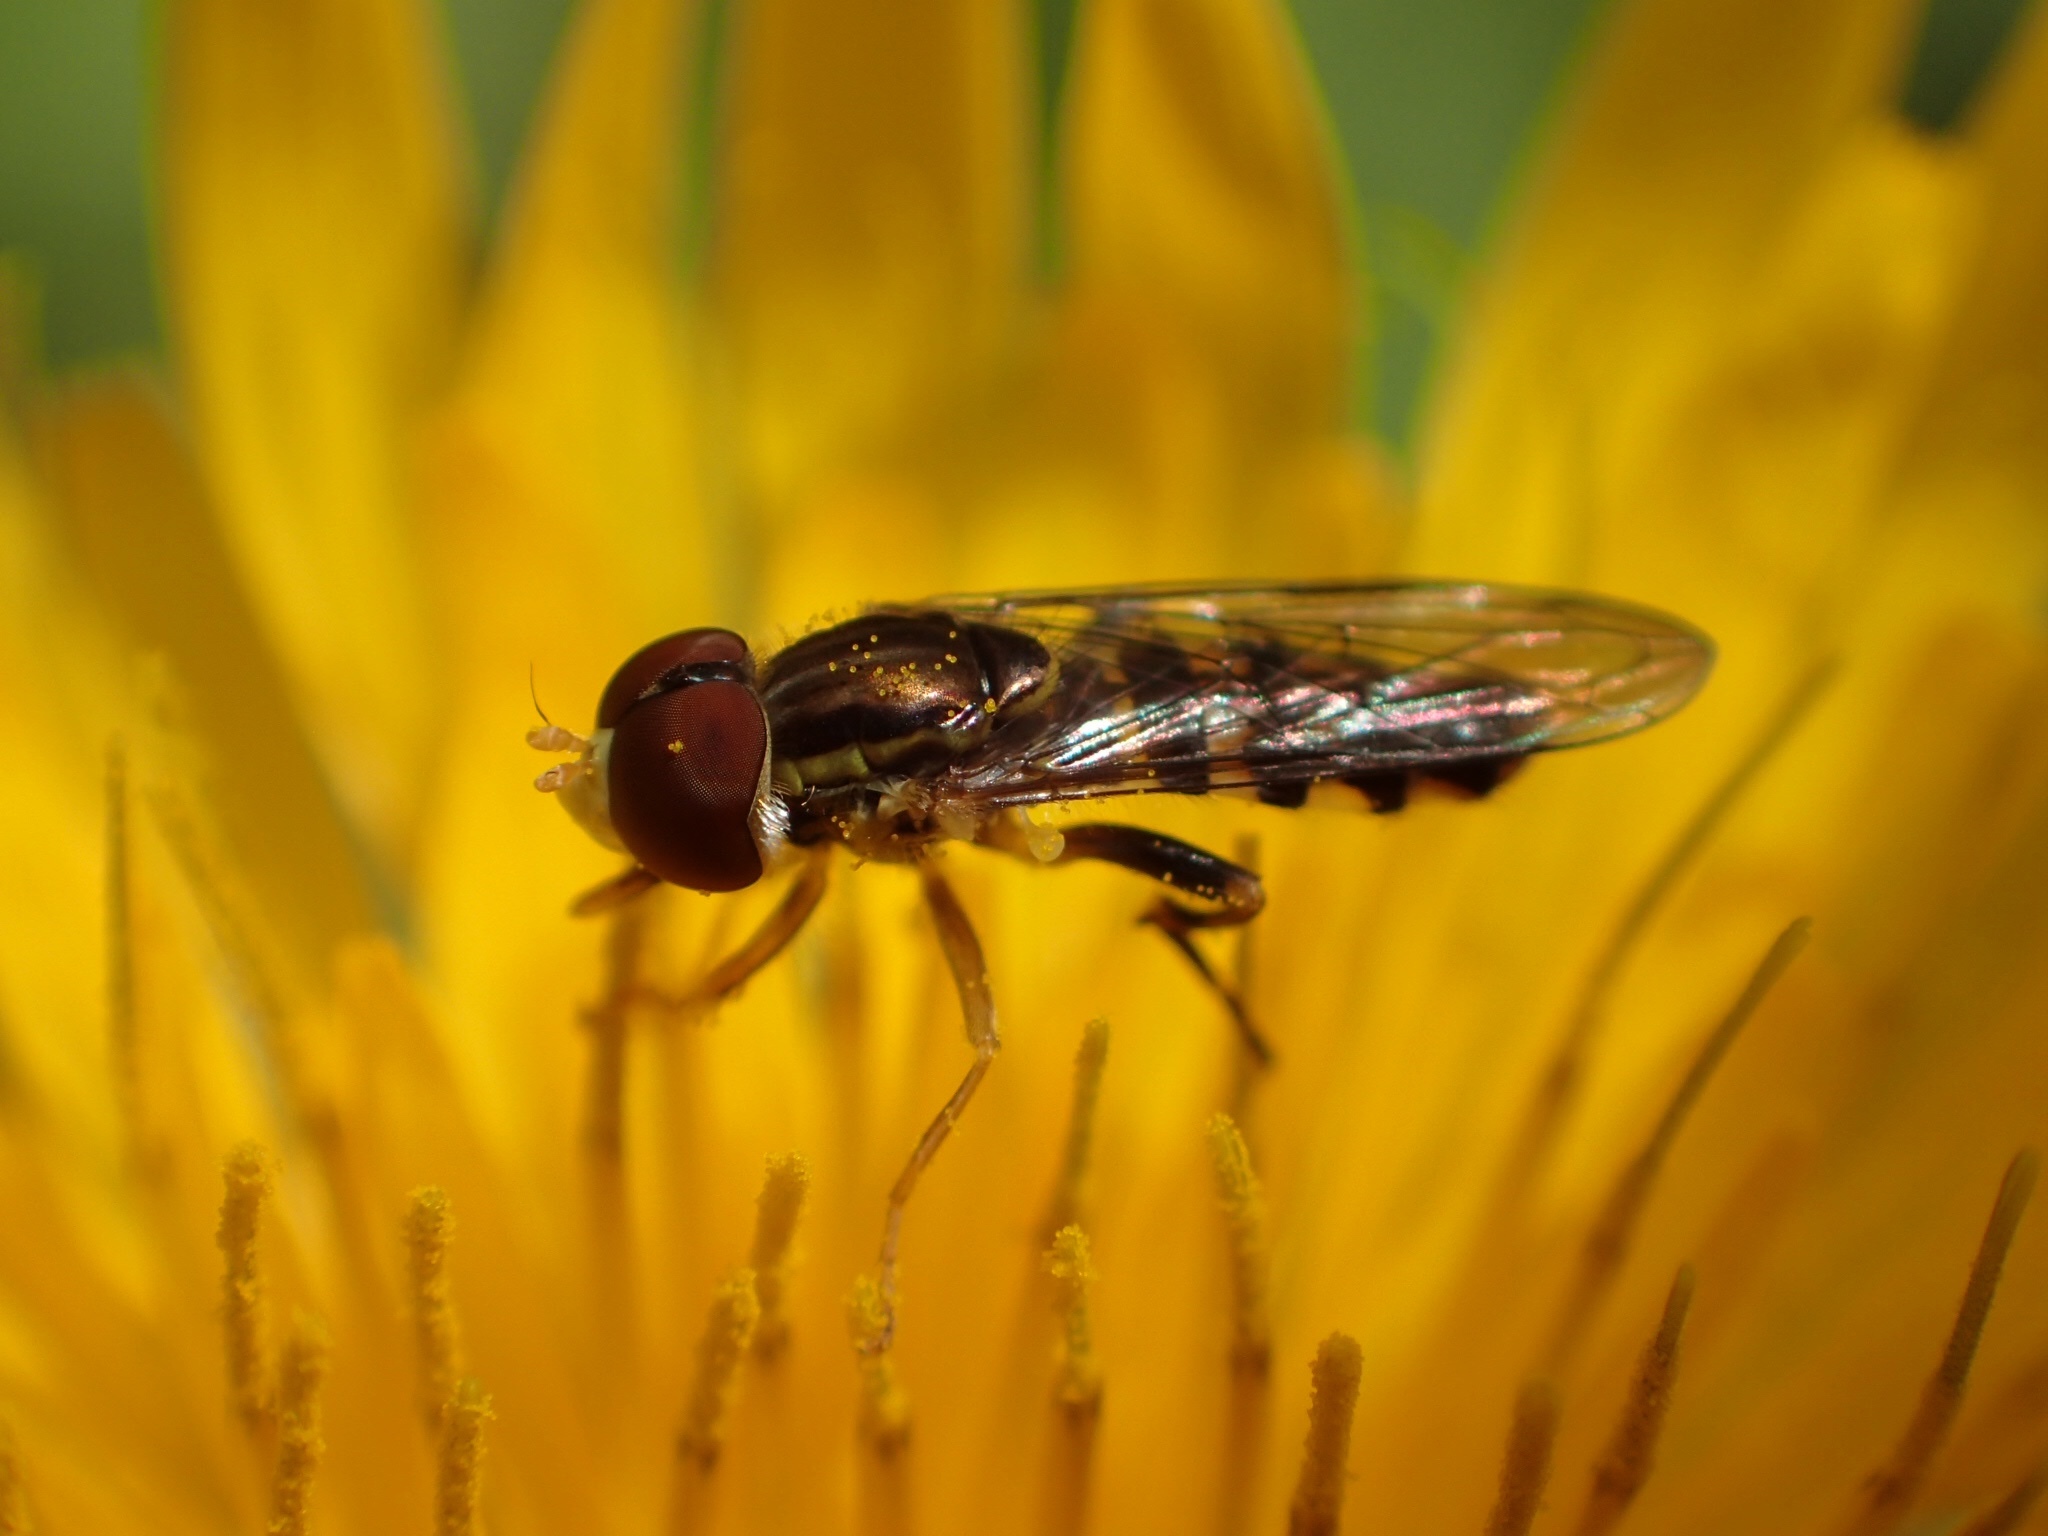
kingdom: Animalia
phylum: Arthropoda
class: Insecta
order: Diptera
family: Syrphidae
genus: Toxomerus
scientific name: Toxomerus geminatus
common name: Eastern calligrapher
